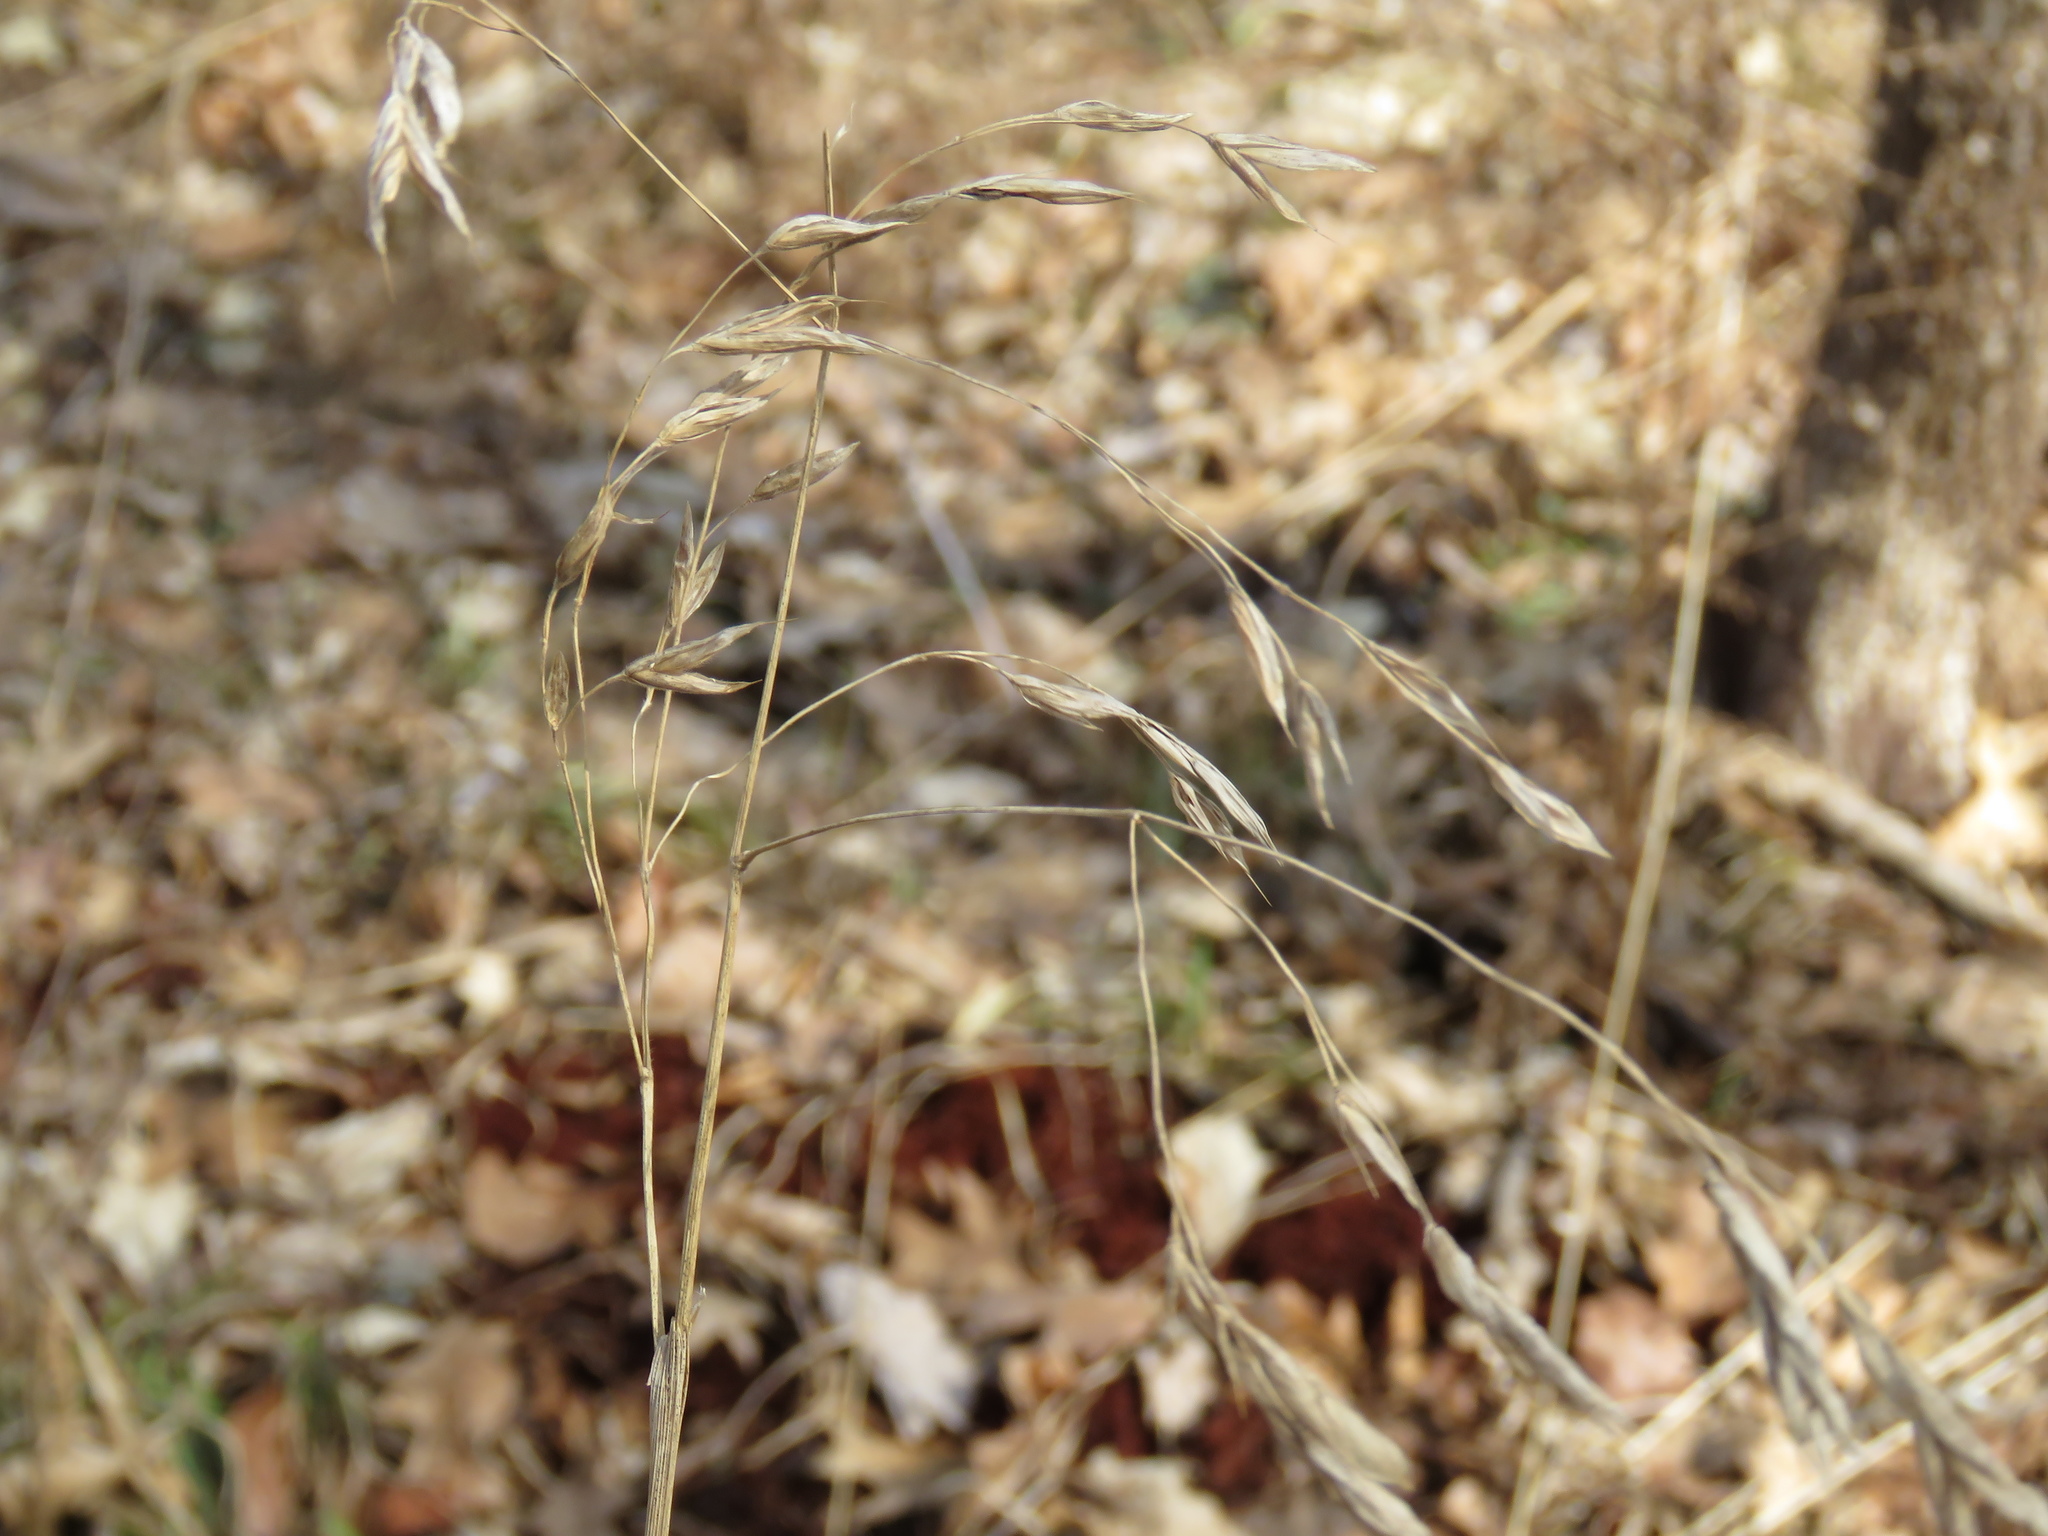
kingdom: Plantae
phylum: Tracheophyta
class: Liliopsida
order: Poales
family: Poaceae
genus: Bromus
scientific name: Bromus pubescens
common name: Hairy wood brome grass
